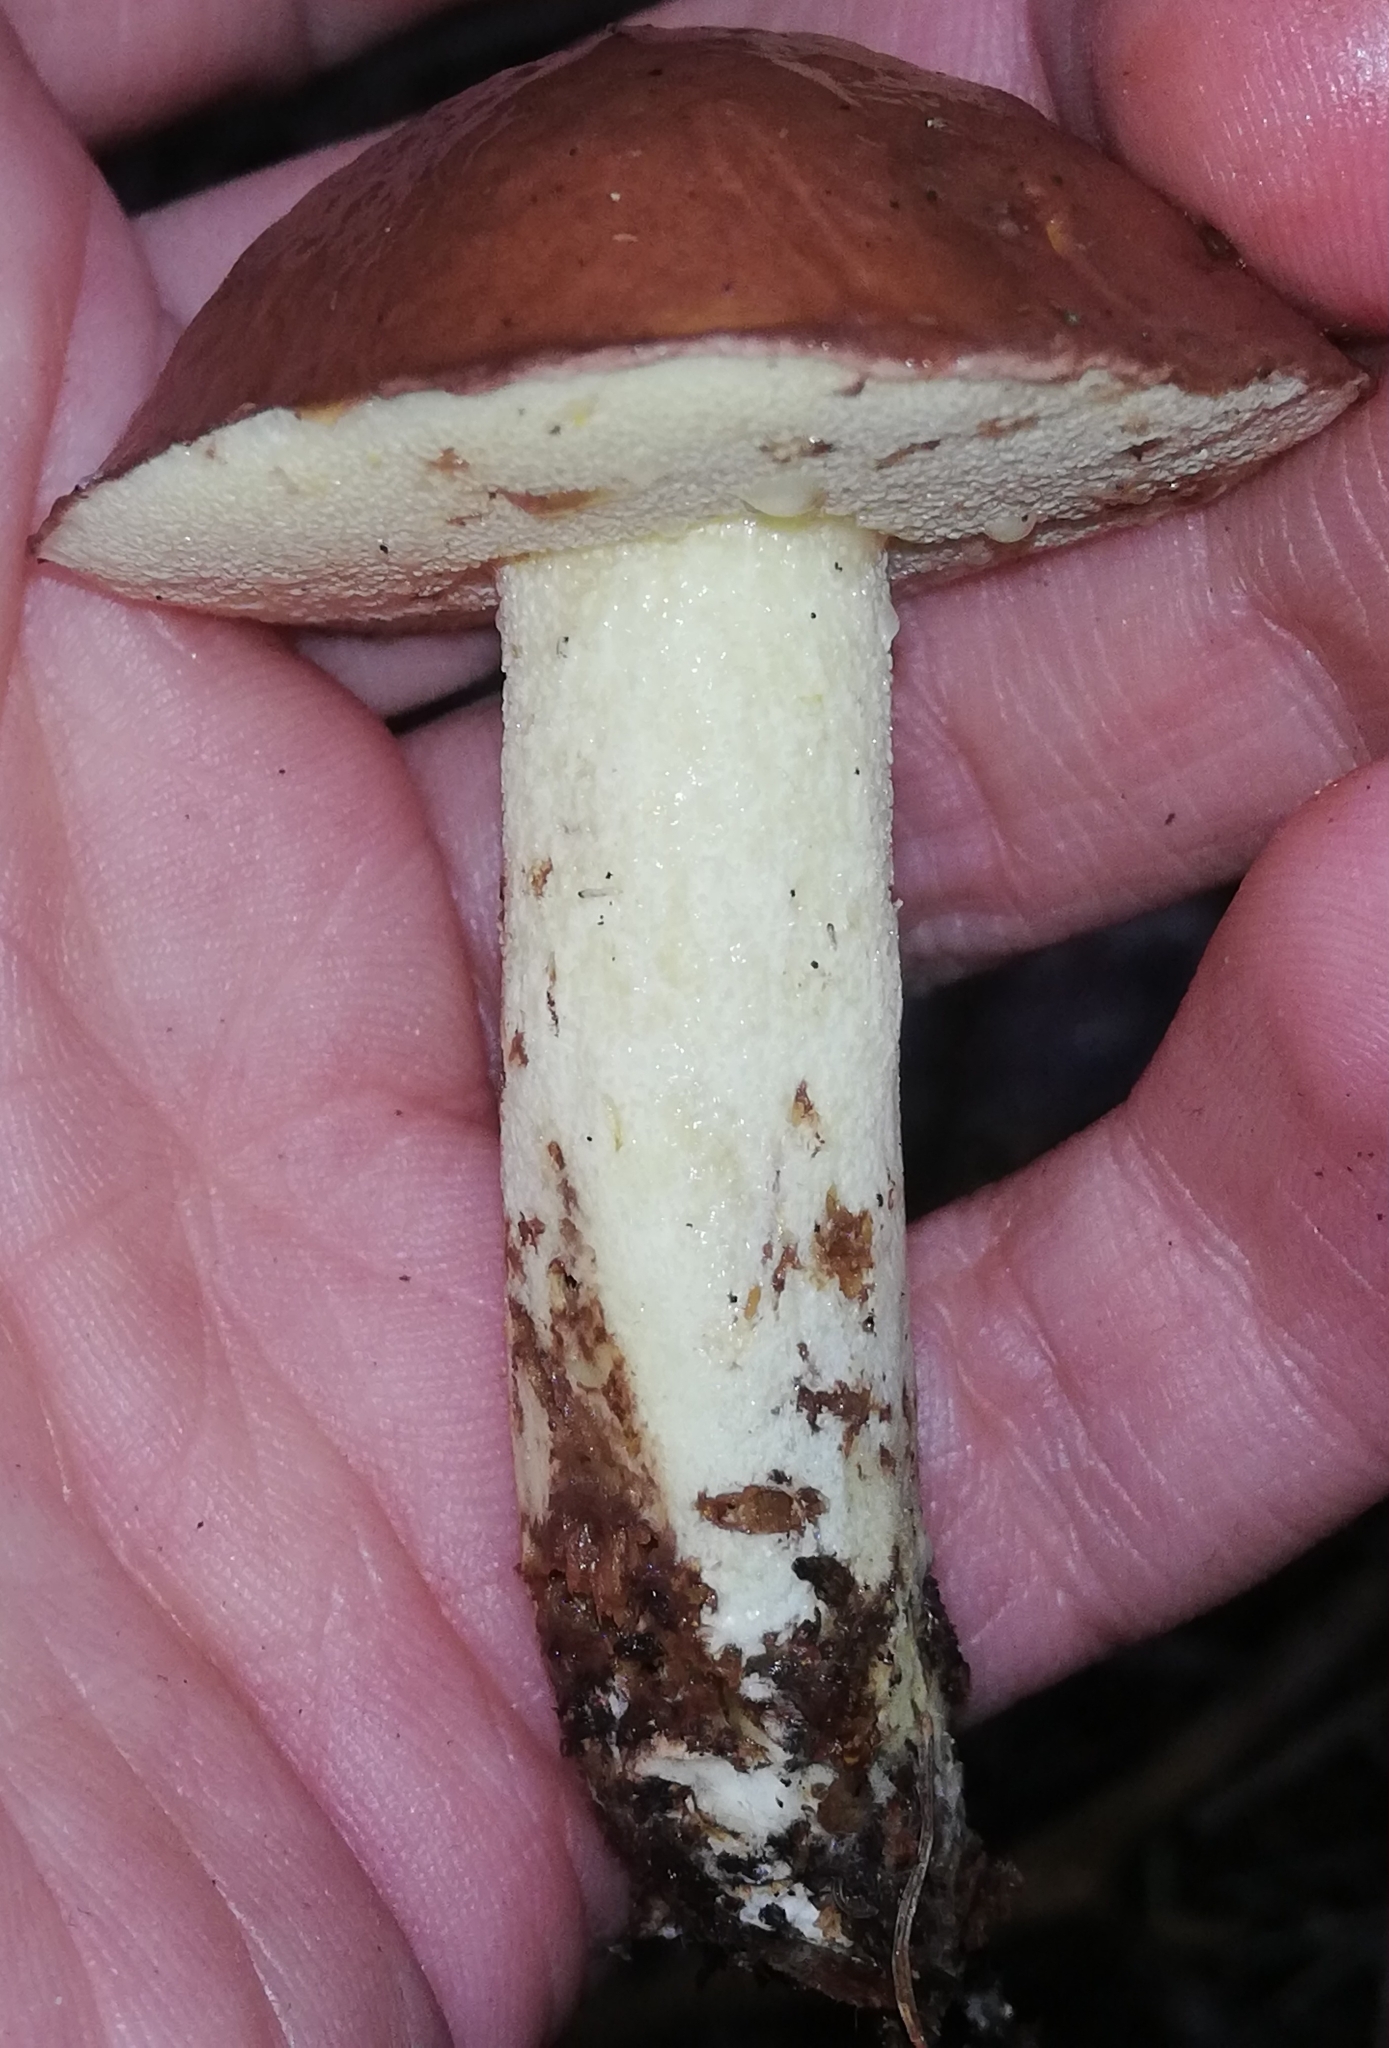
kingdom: Fungi
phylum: Basidiomycota
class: Agaricomycetes
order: Boletales
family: Suillaceae
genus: Suillus
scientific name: Suillus granulatus
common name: Weeping bolete
